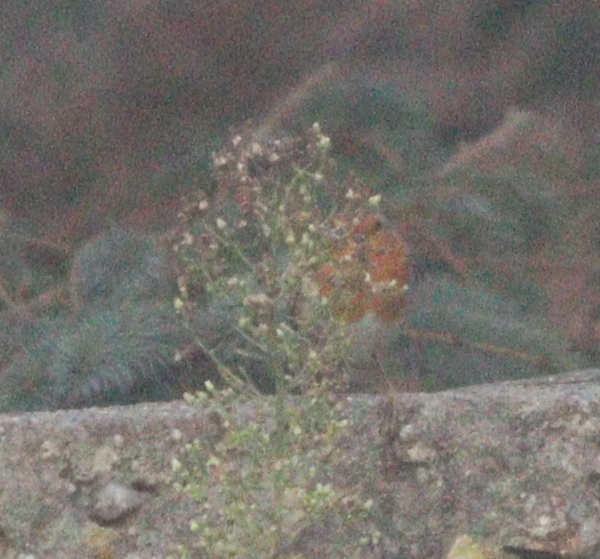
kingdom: Animalia
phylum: Chordata
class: Aves
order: Passeriformes
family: Muscicapidae
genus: Erithacus
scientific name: Erithacus rubecula
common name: European robin
